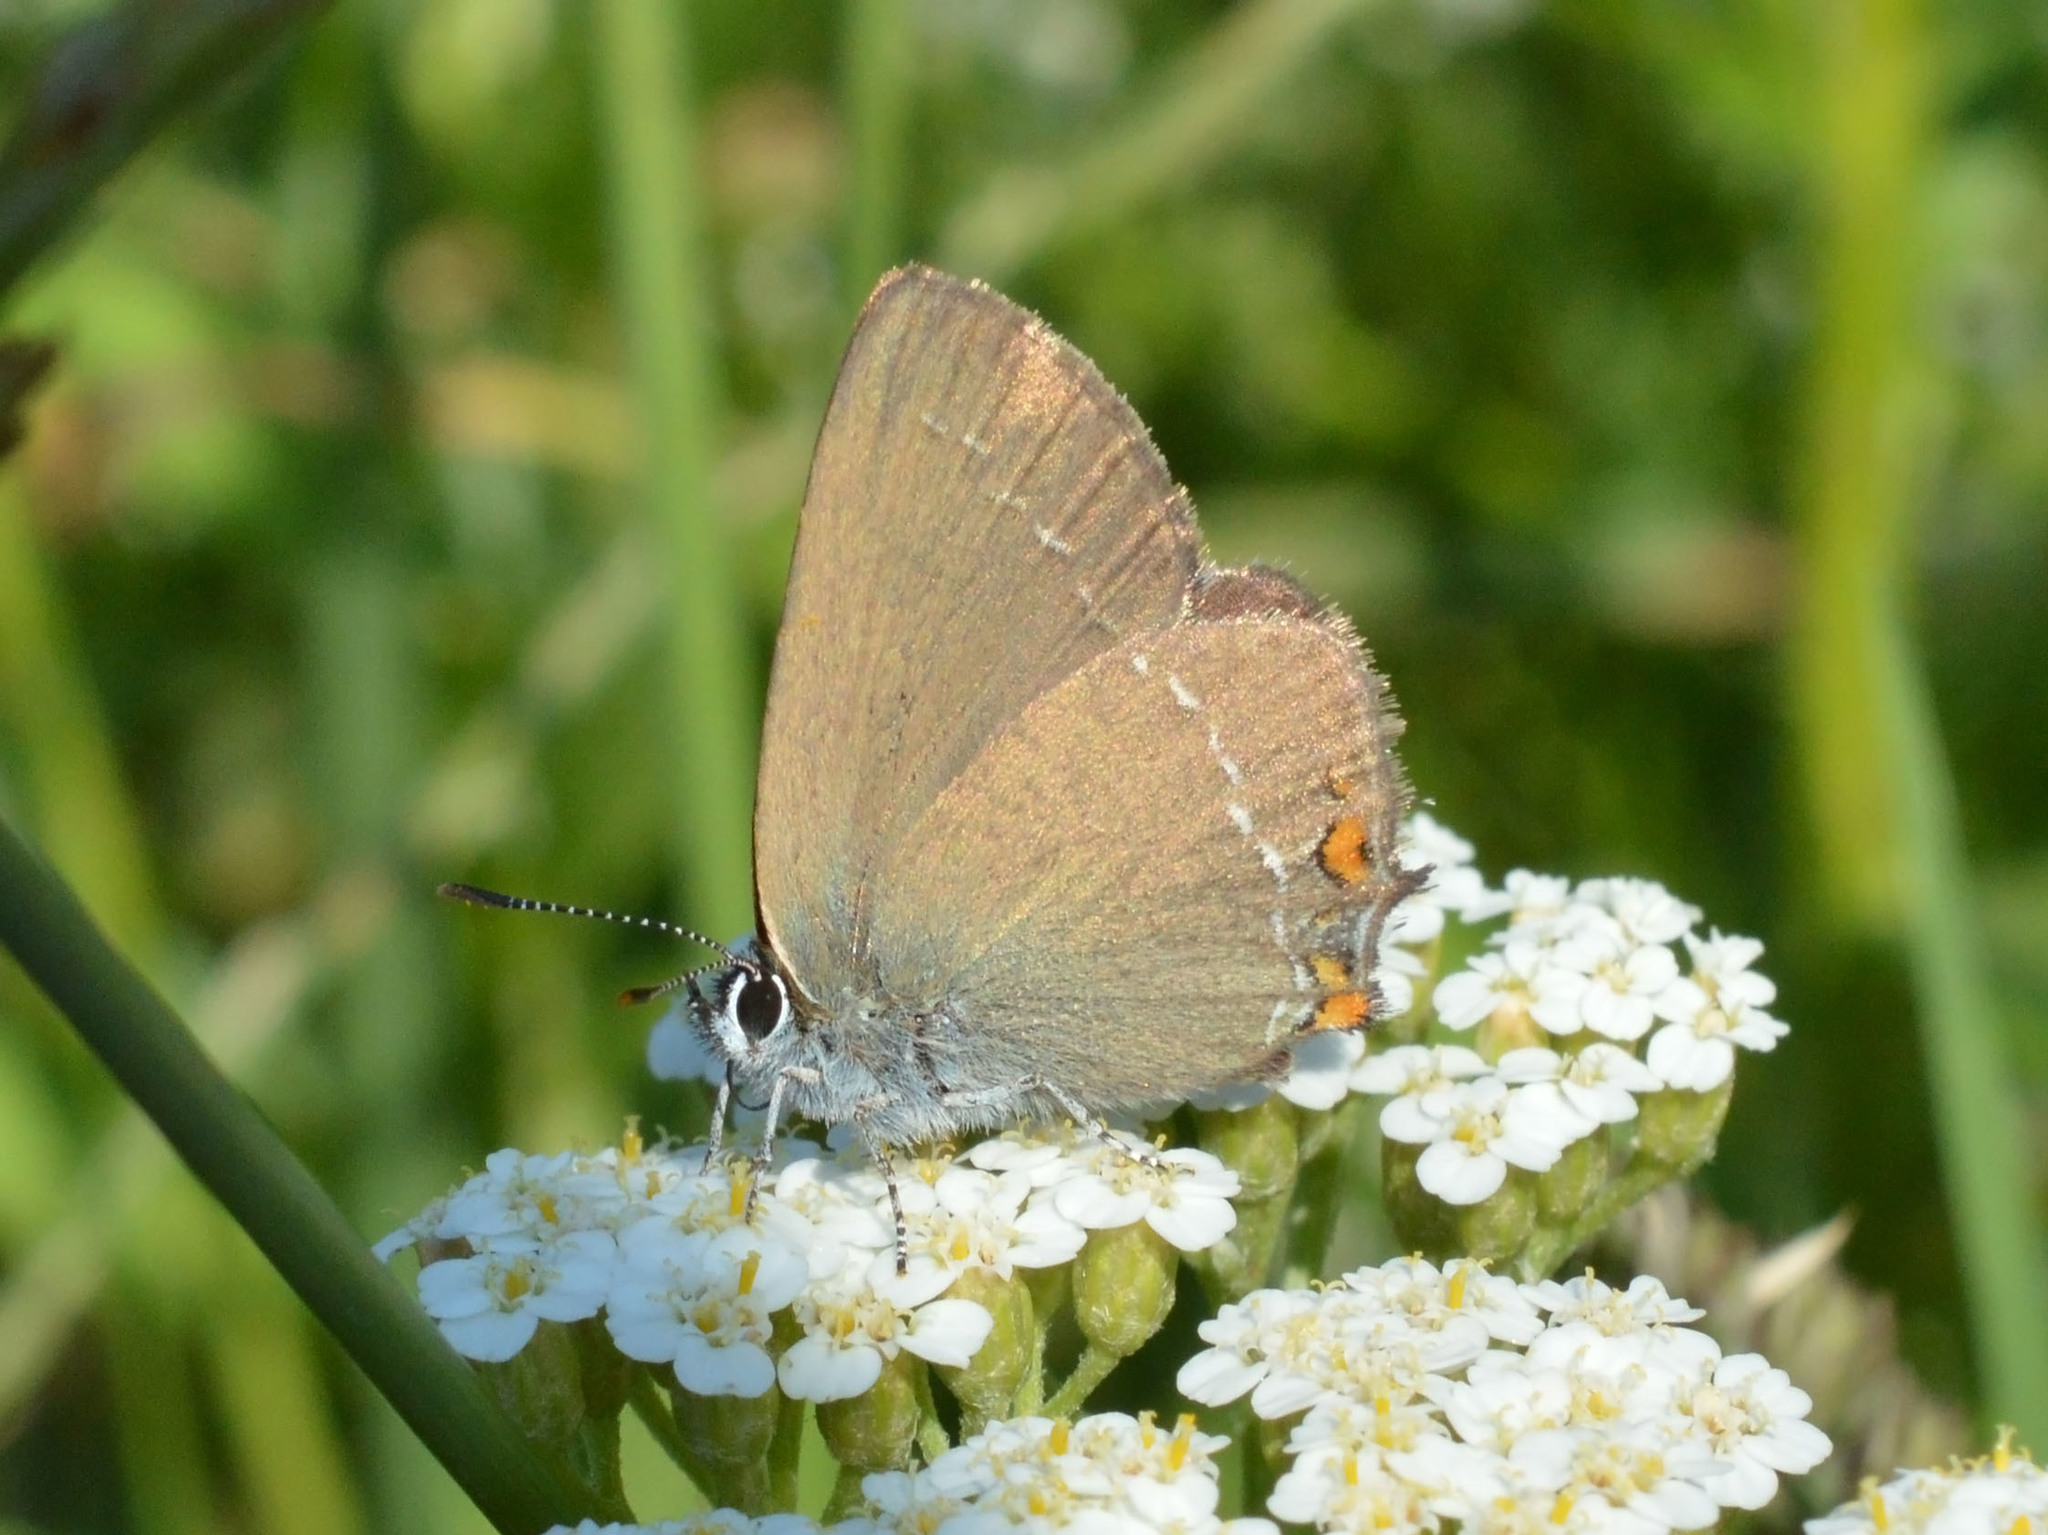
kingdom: Animalia
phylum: Arthropoda
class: Insecta
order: Lepidoptera
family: Lycaenidae
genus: Strymon
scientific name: Strymon acaciae
